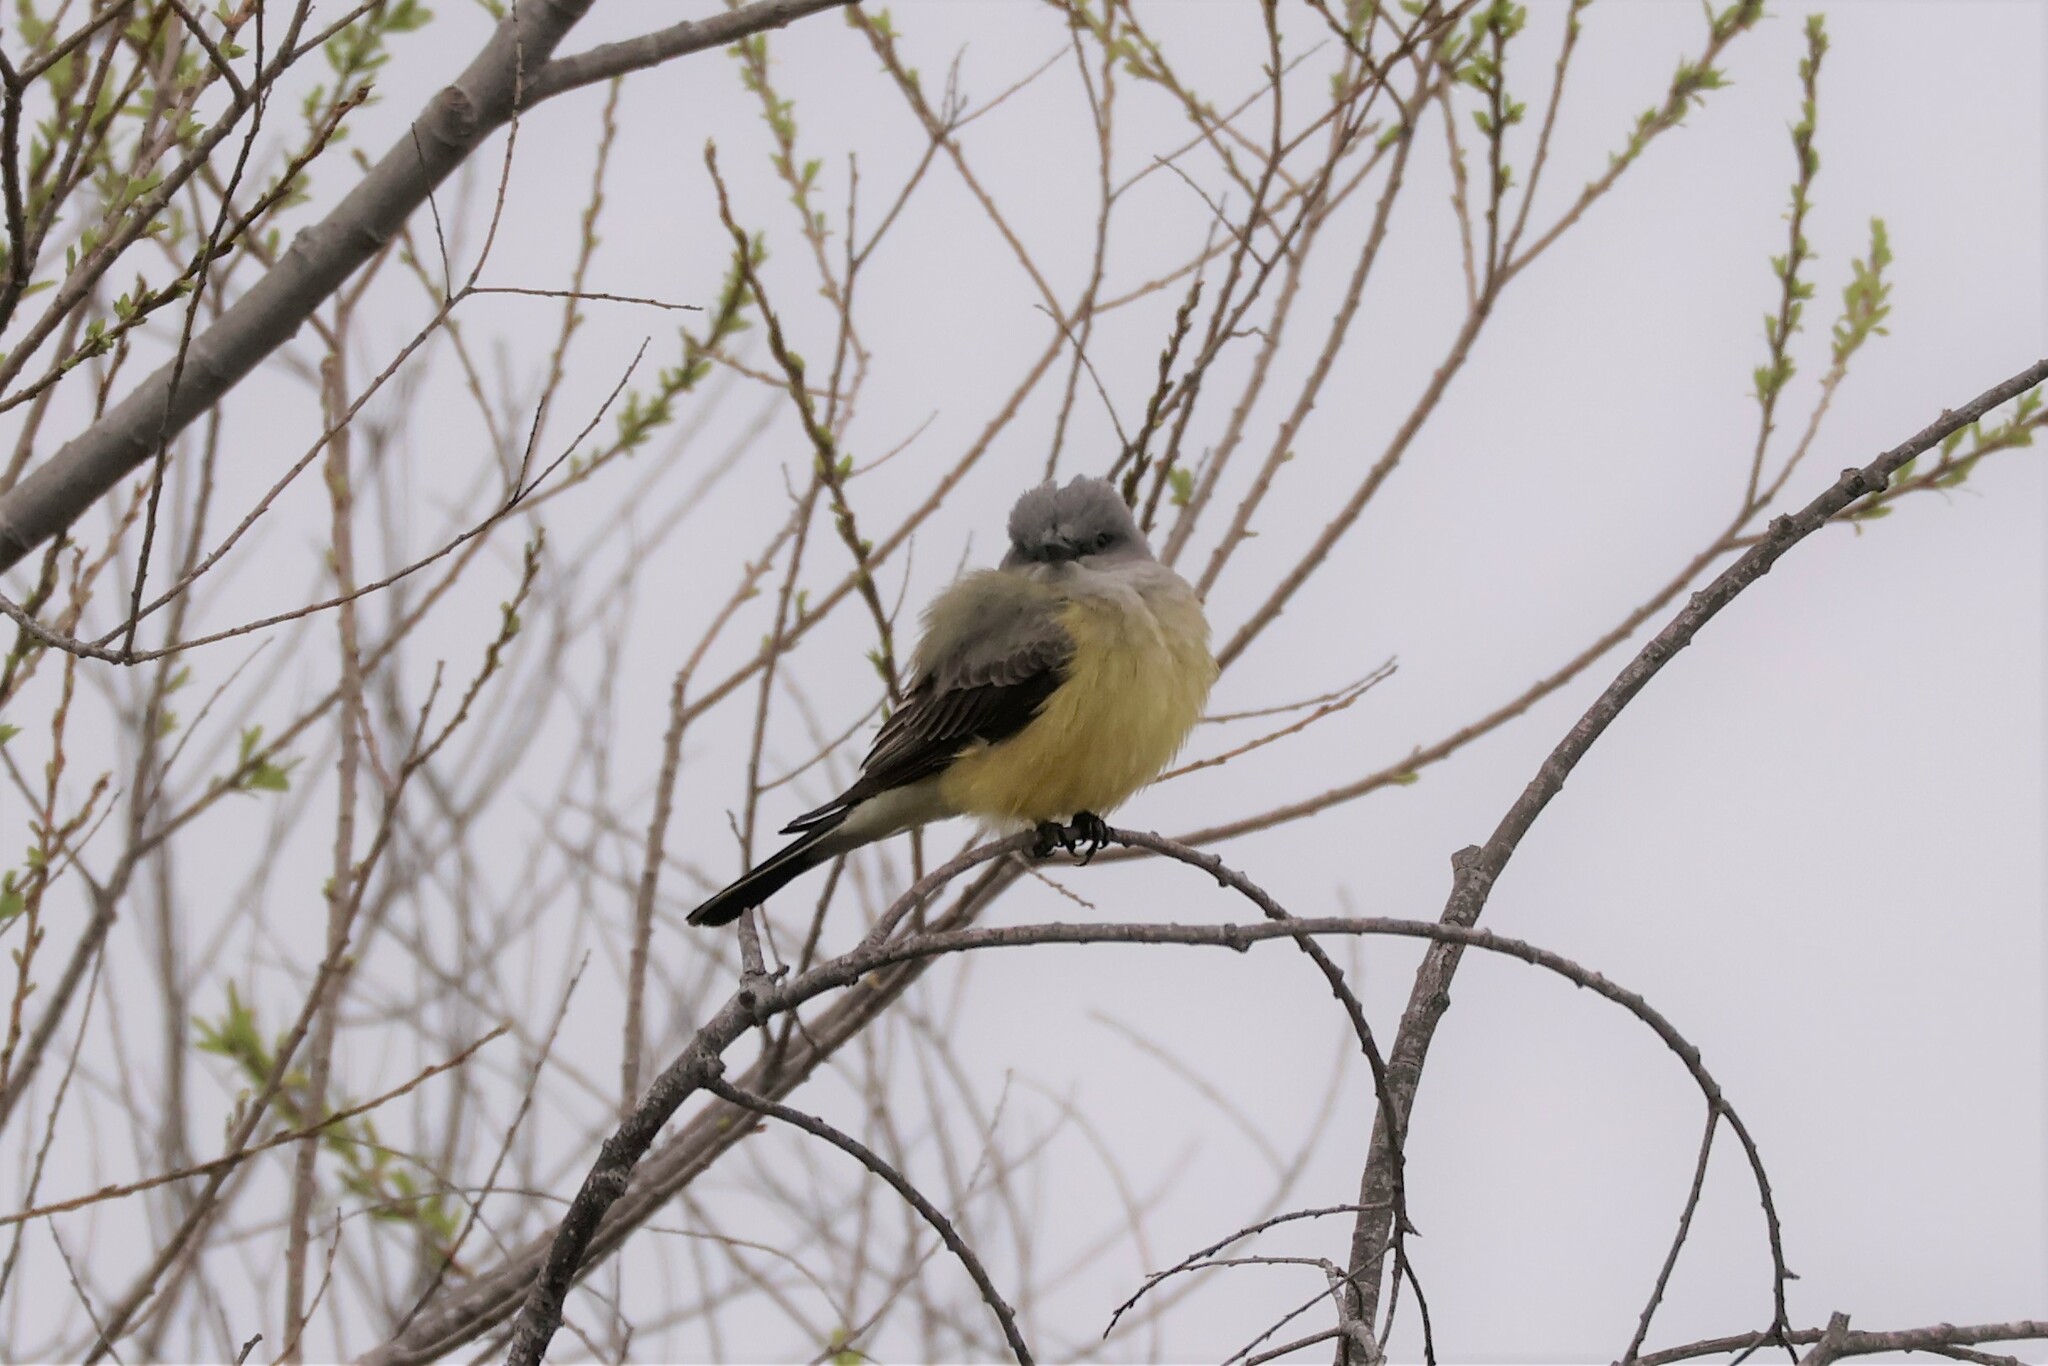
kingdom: Animalia
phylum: Chordata
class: Aves
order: Passeriformes
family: Tyrannidae
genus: Tyrannus
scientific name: Tyrannus verticalis
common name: Western kingbird
